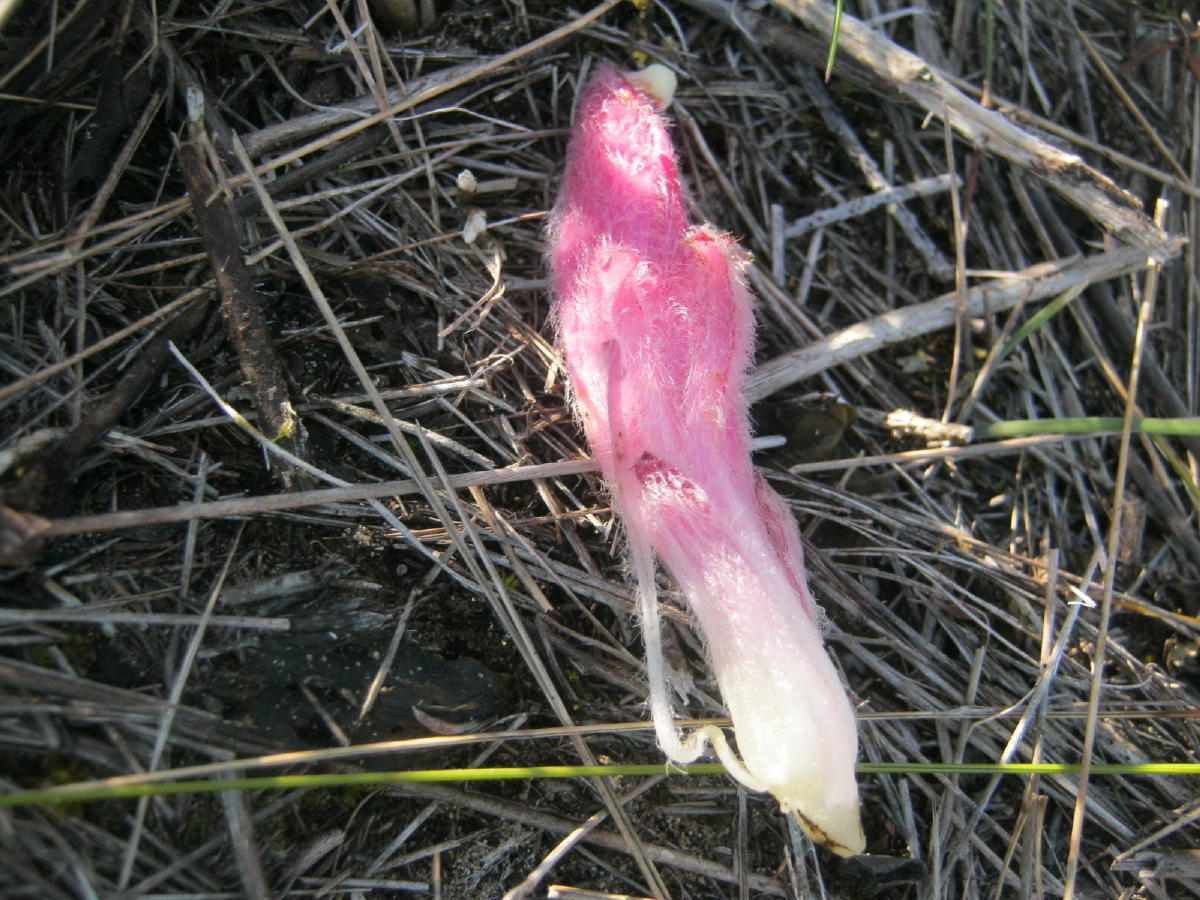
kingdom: Plantae
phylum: Tracheophyta
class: Magnoliopsida
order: Lamiales
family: Orobanchaceae
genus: Hyobanche
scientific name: Hyobanche robusta
